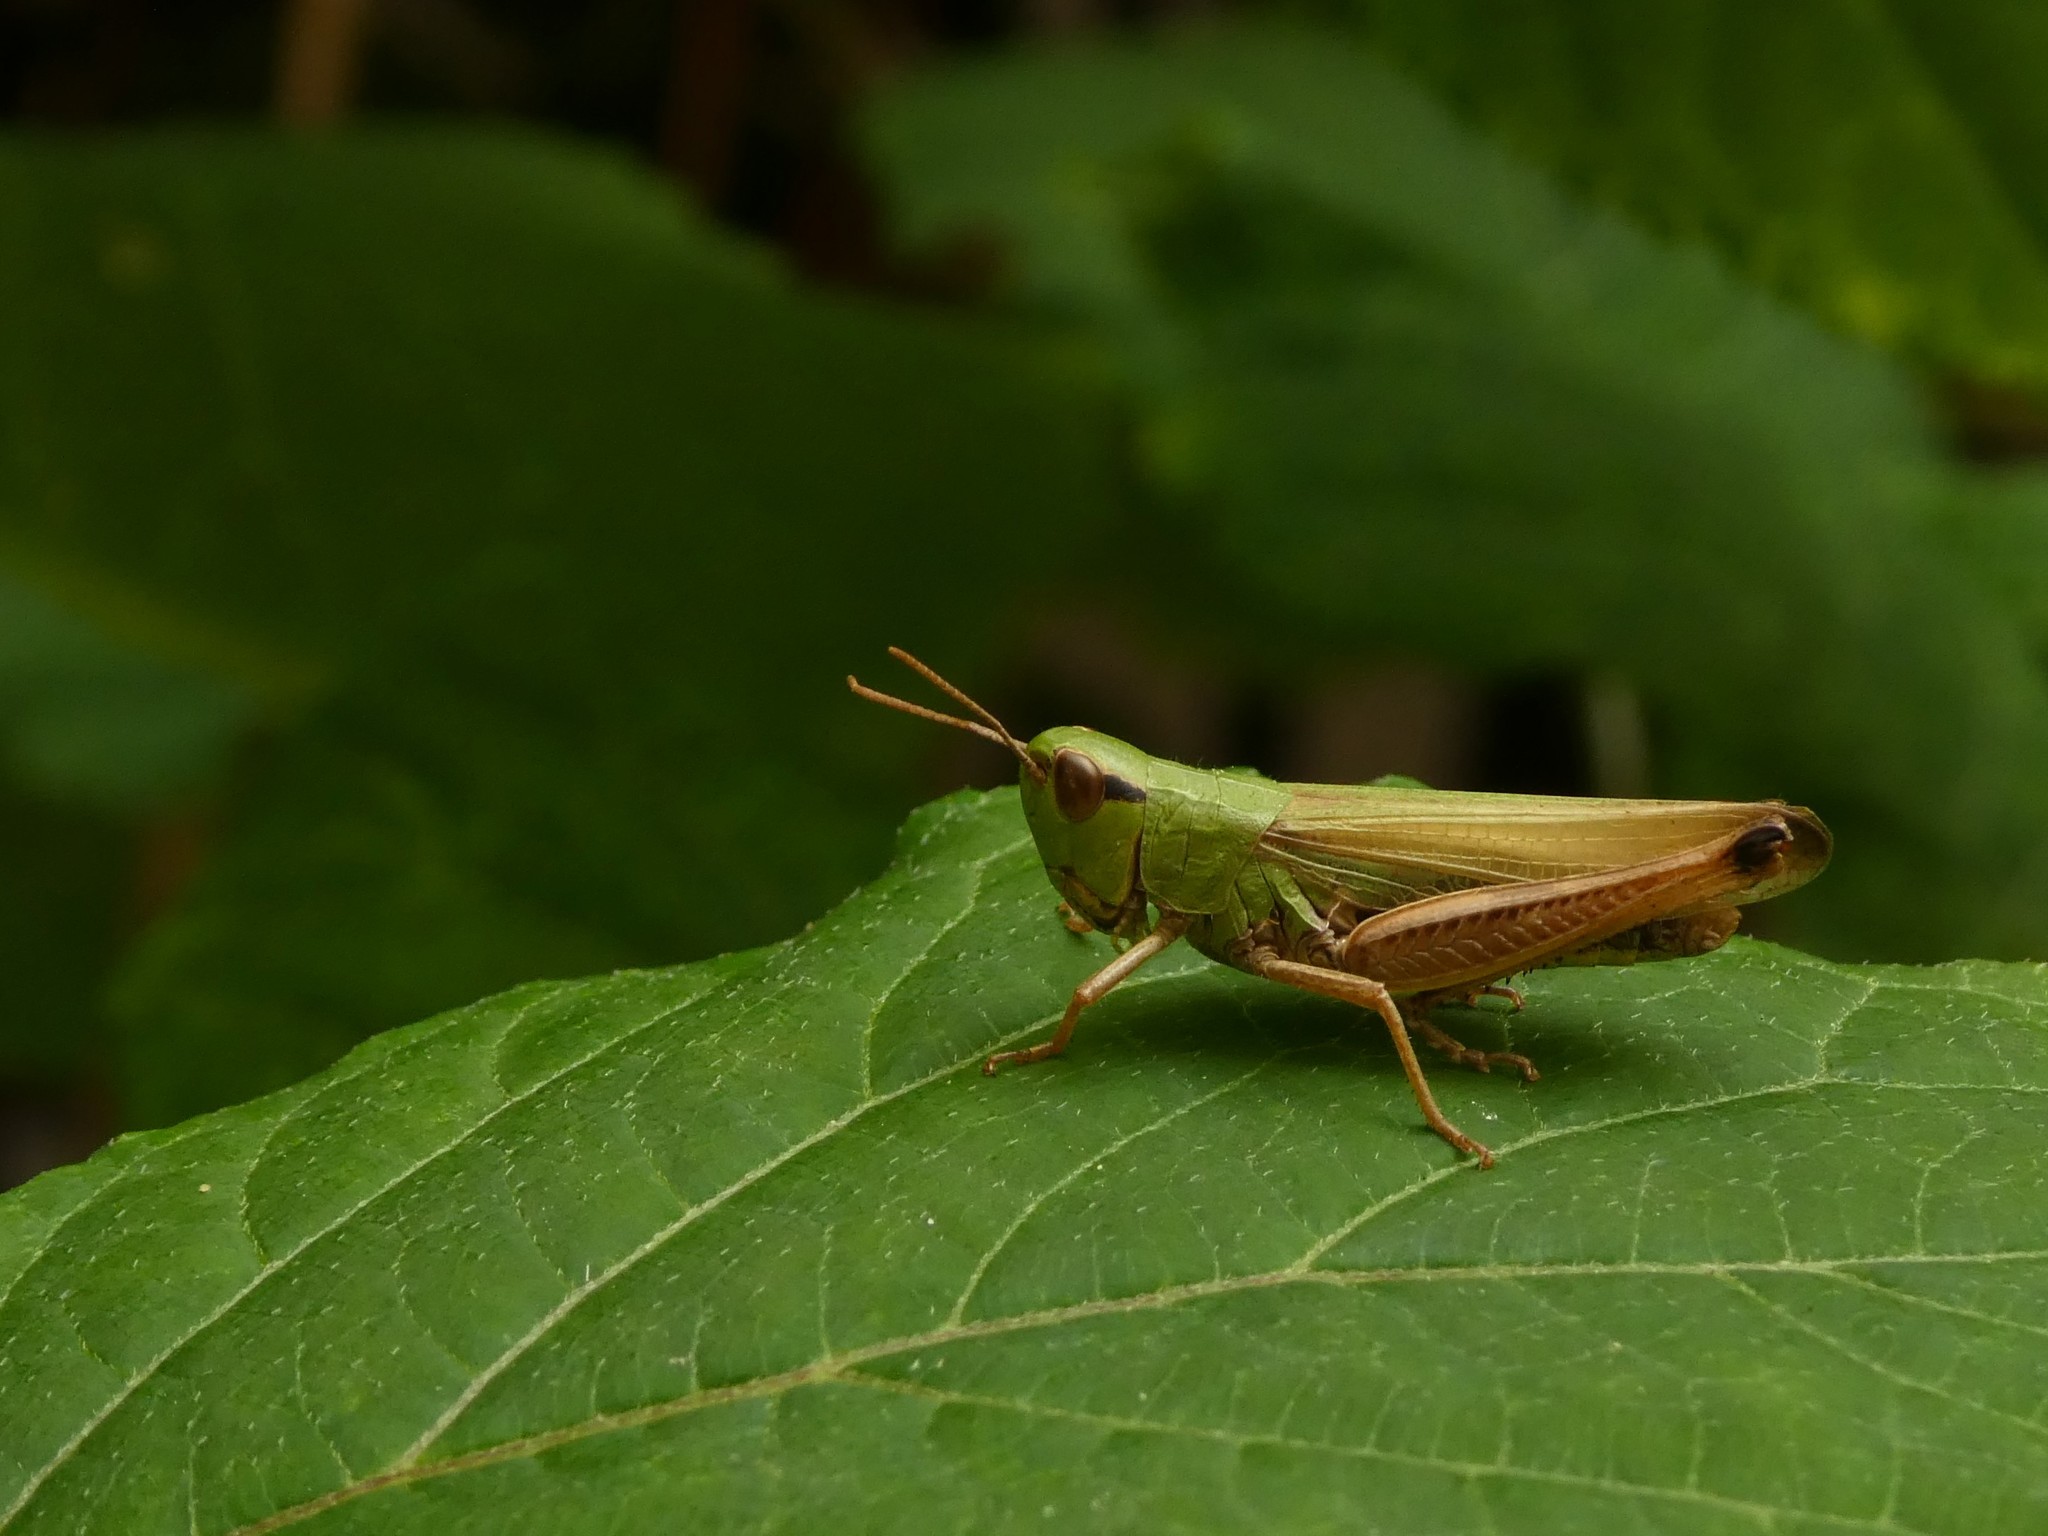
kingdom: Animalia
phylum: Arthropoda
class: Insecta
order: Orthoptera
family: Acrididae
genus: Pseudochorthippus
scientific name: Pseudochorthippus parallelus
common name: Meadow grasshopper
